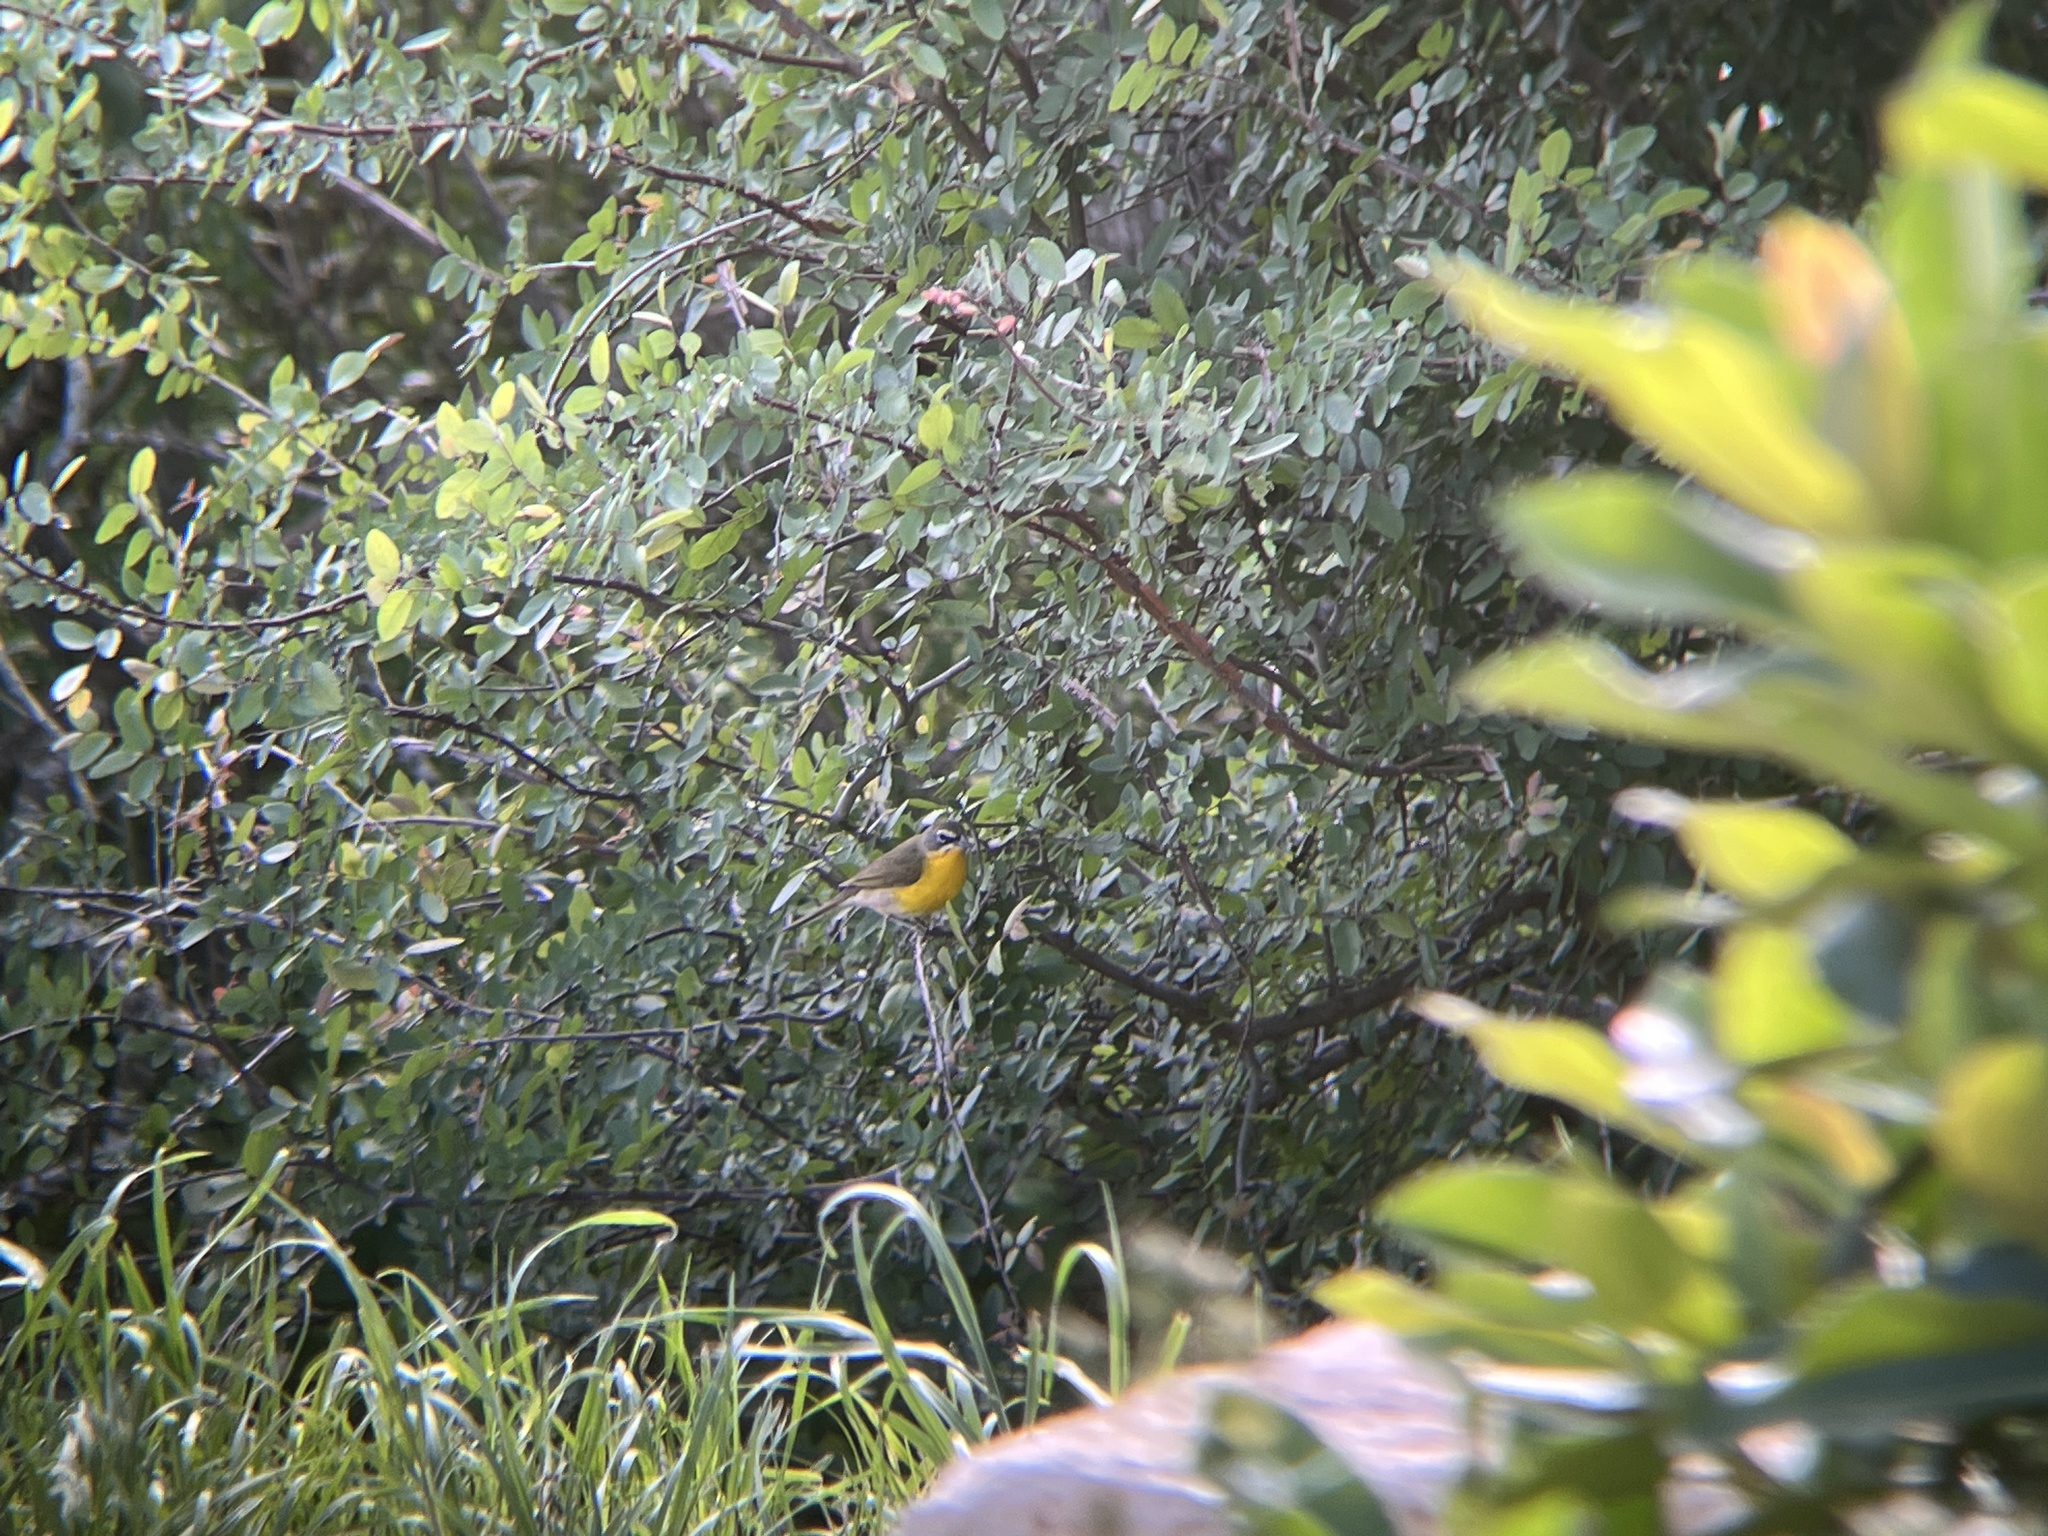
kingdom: Animalia
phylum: Chordata
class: Aves
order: Passeriformes
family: Parulidae
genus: Icteria
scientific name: Icteria virens
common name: Yellow-breasted chat
